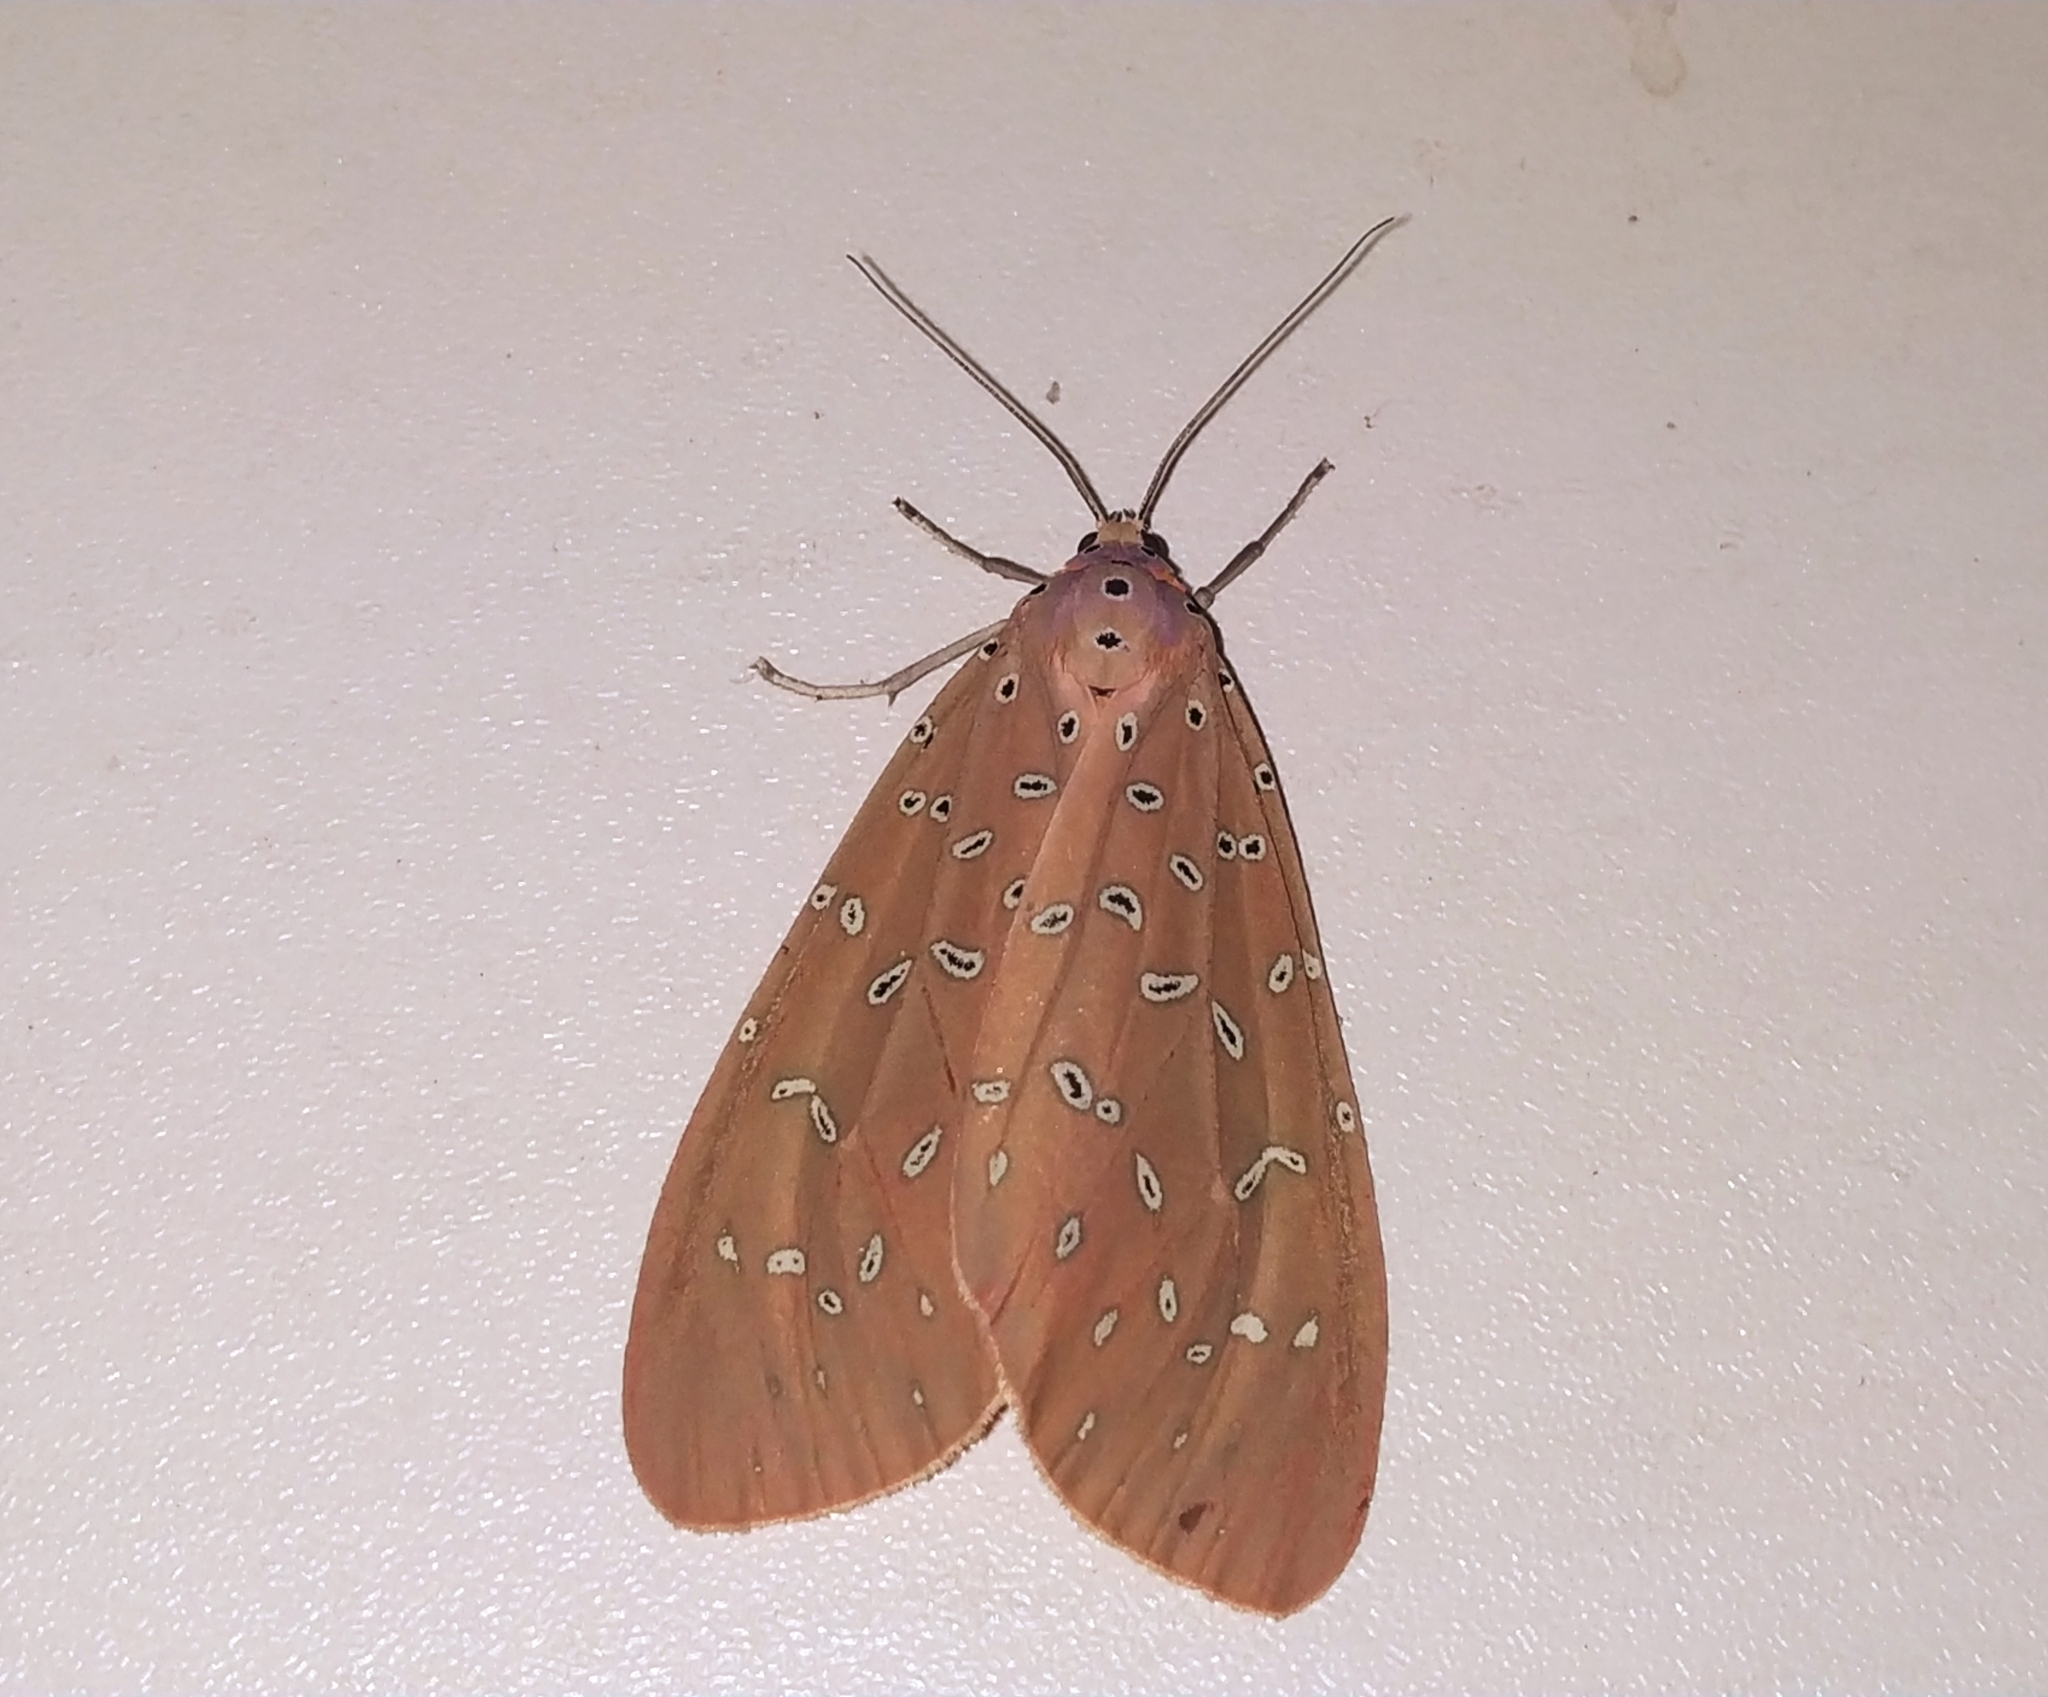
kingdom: Animalia
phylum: Arthropoda
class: Insecta
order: Lepidoptera
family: Erebidae
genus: Mangina
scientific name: Mangina argus
